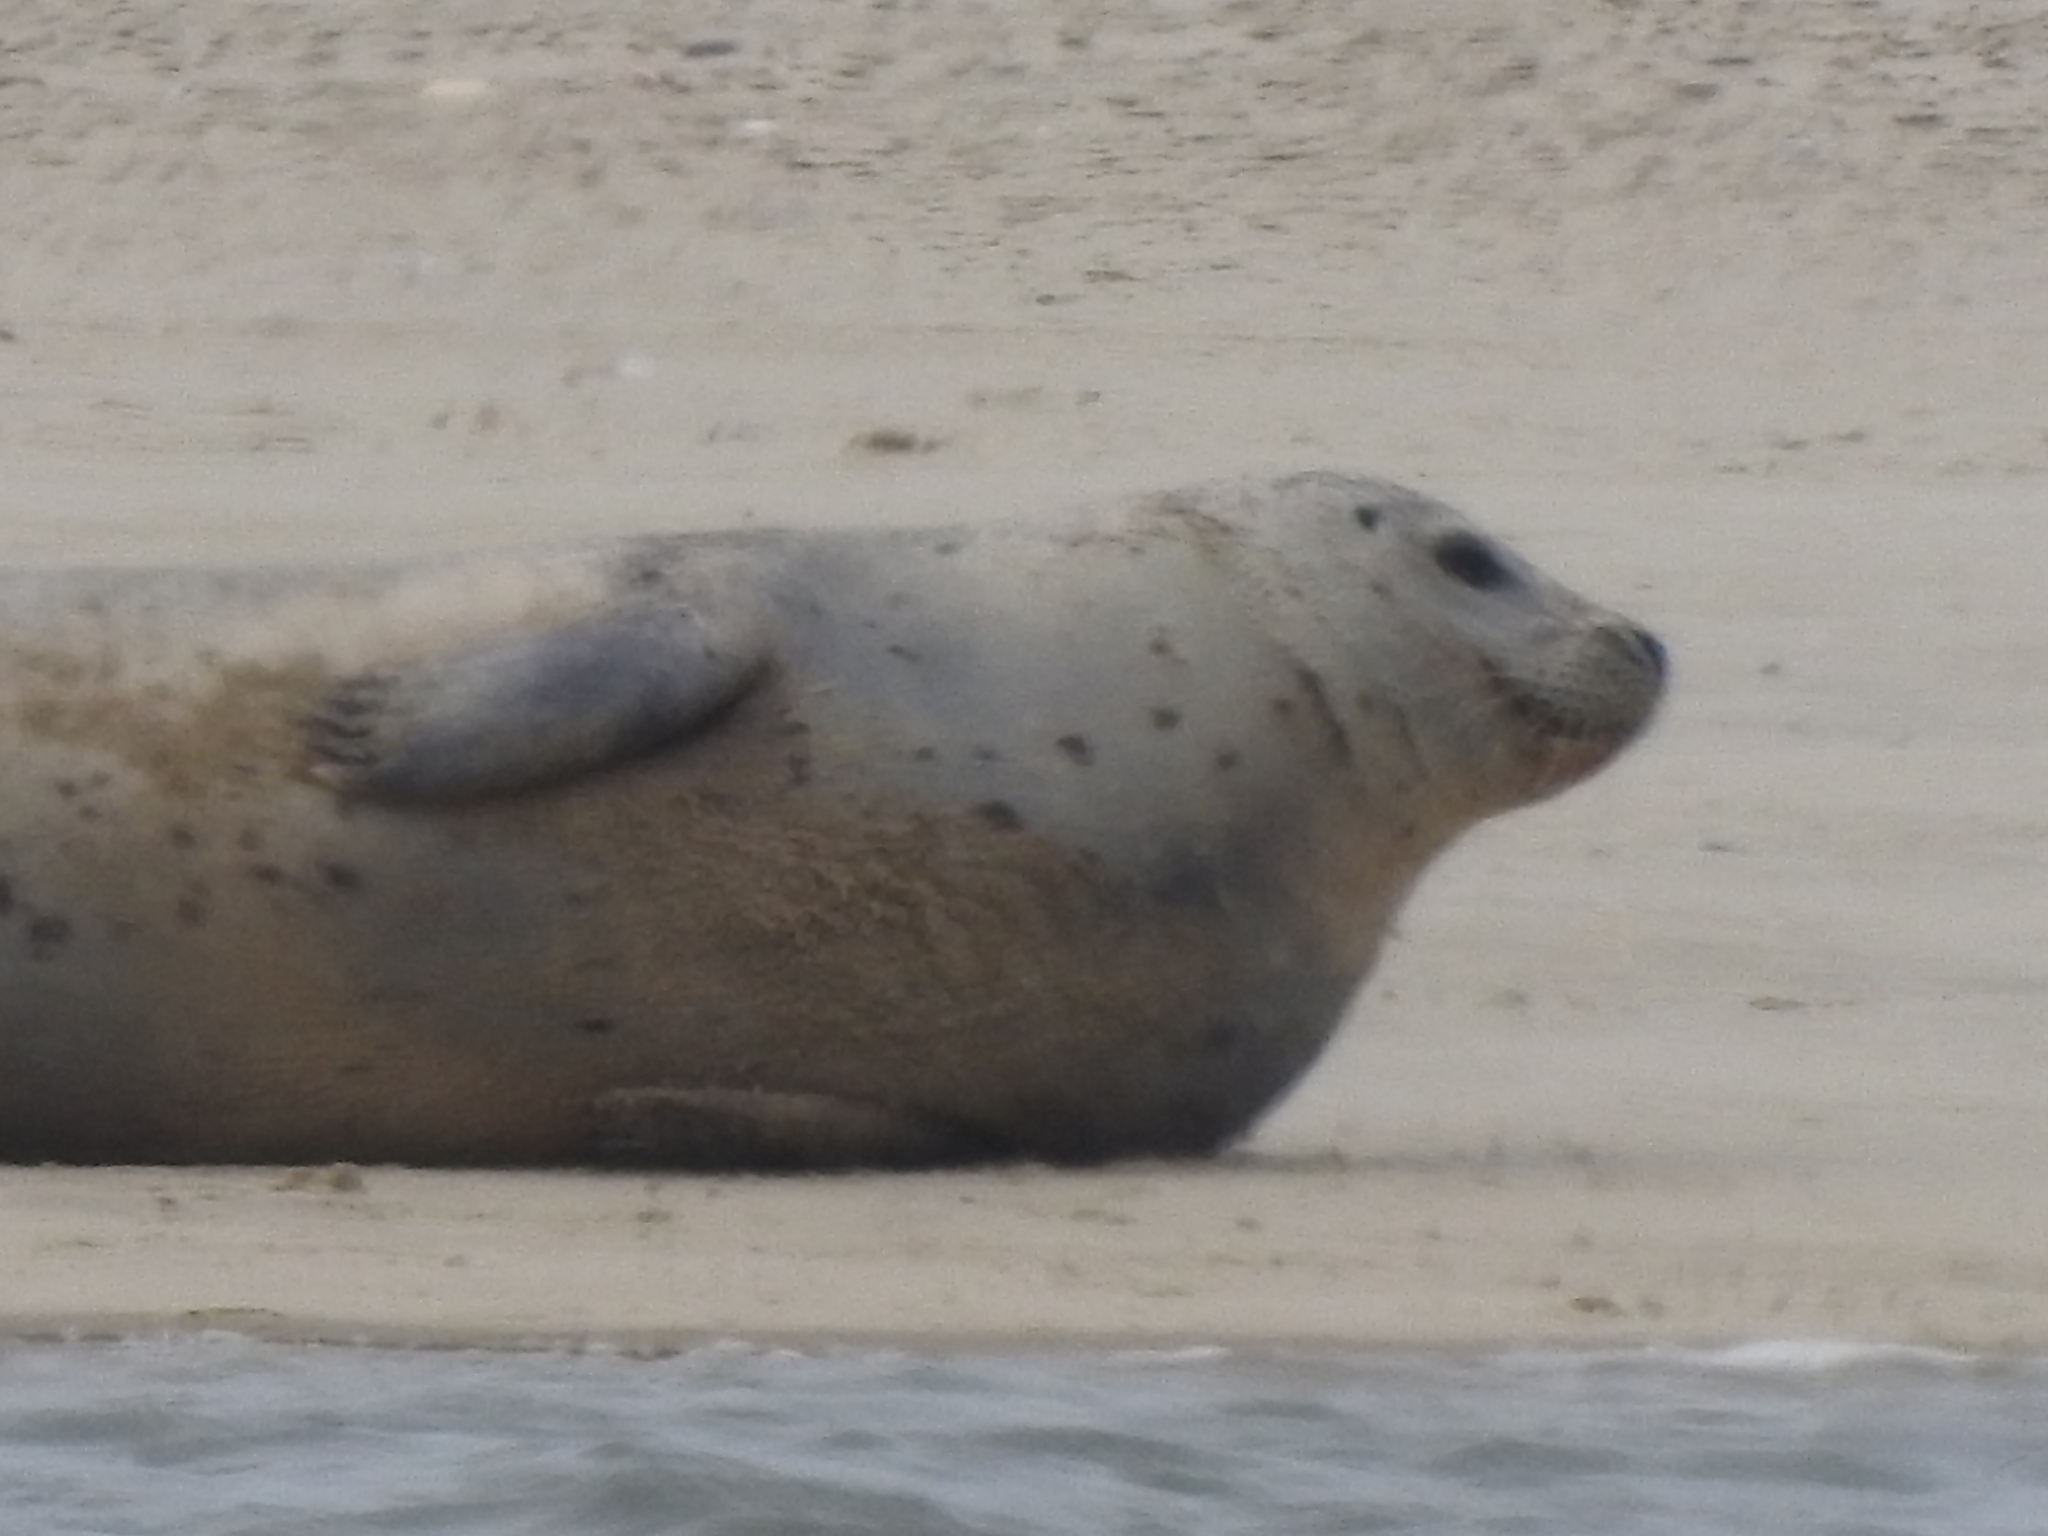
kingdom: Animalia
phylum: Chordata
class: Mammalia
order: Carnivora
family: Phocidae
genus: Phoca
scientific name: Phoca vitulina
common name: Harbor seal
